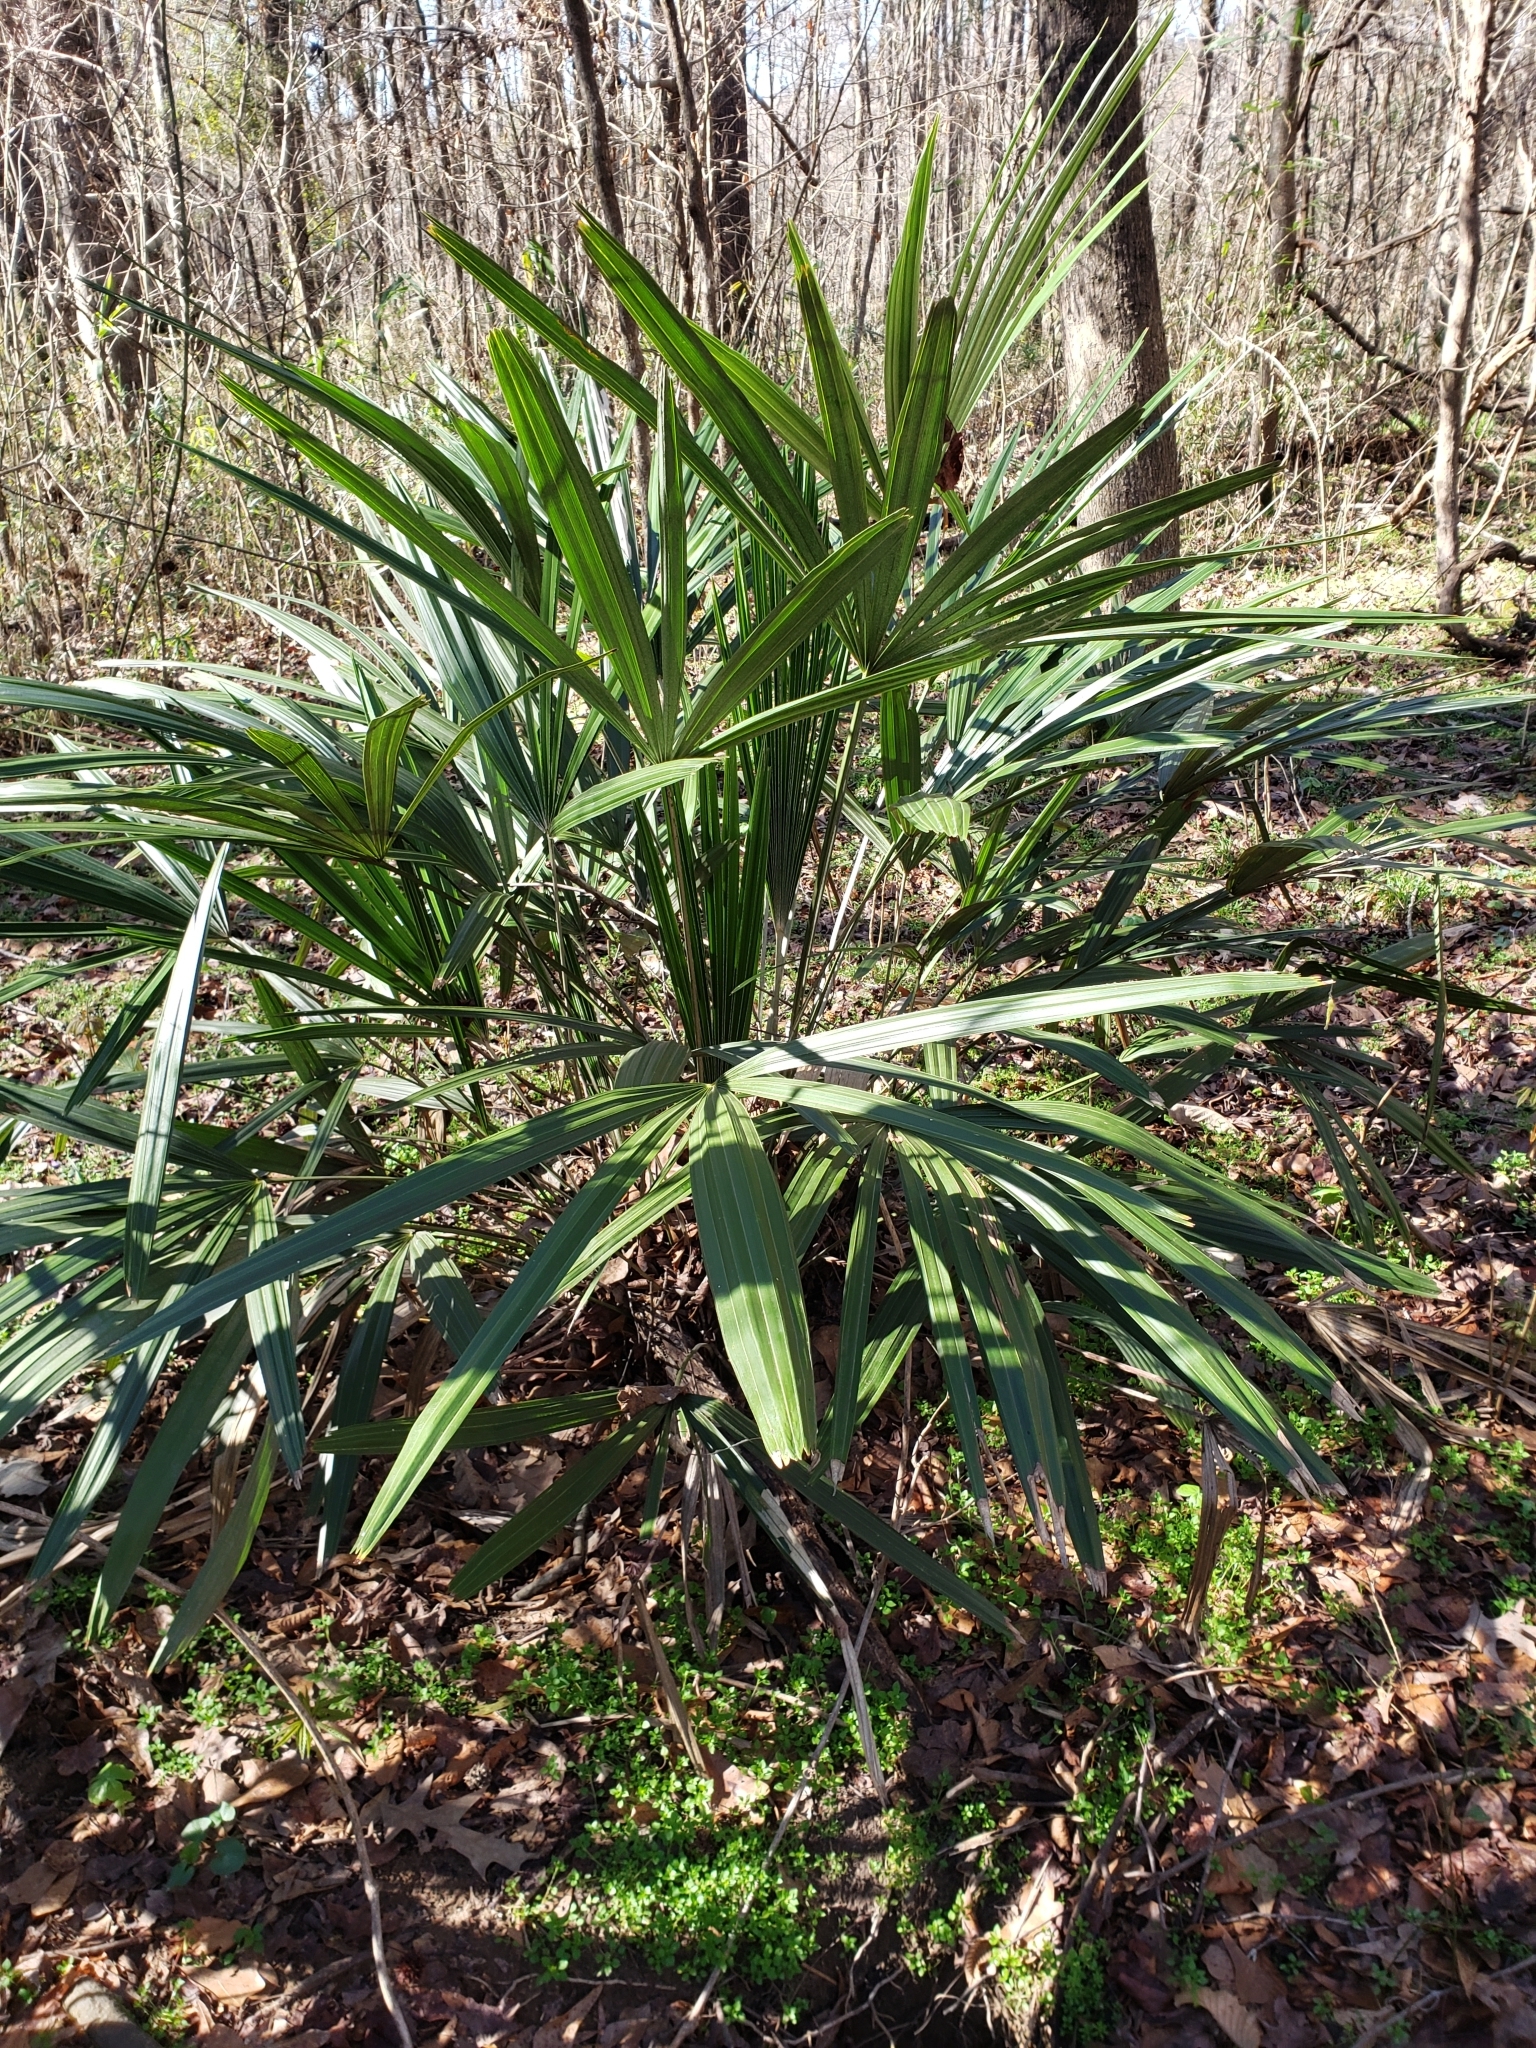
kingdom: Plantae
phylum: Tracheophyta
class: Liliopsida
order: Arecales
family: Arecaceae
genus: Rhapidophyllum
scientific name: Rhapidophyllum hystrix
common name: Porcupine palm
